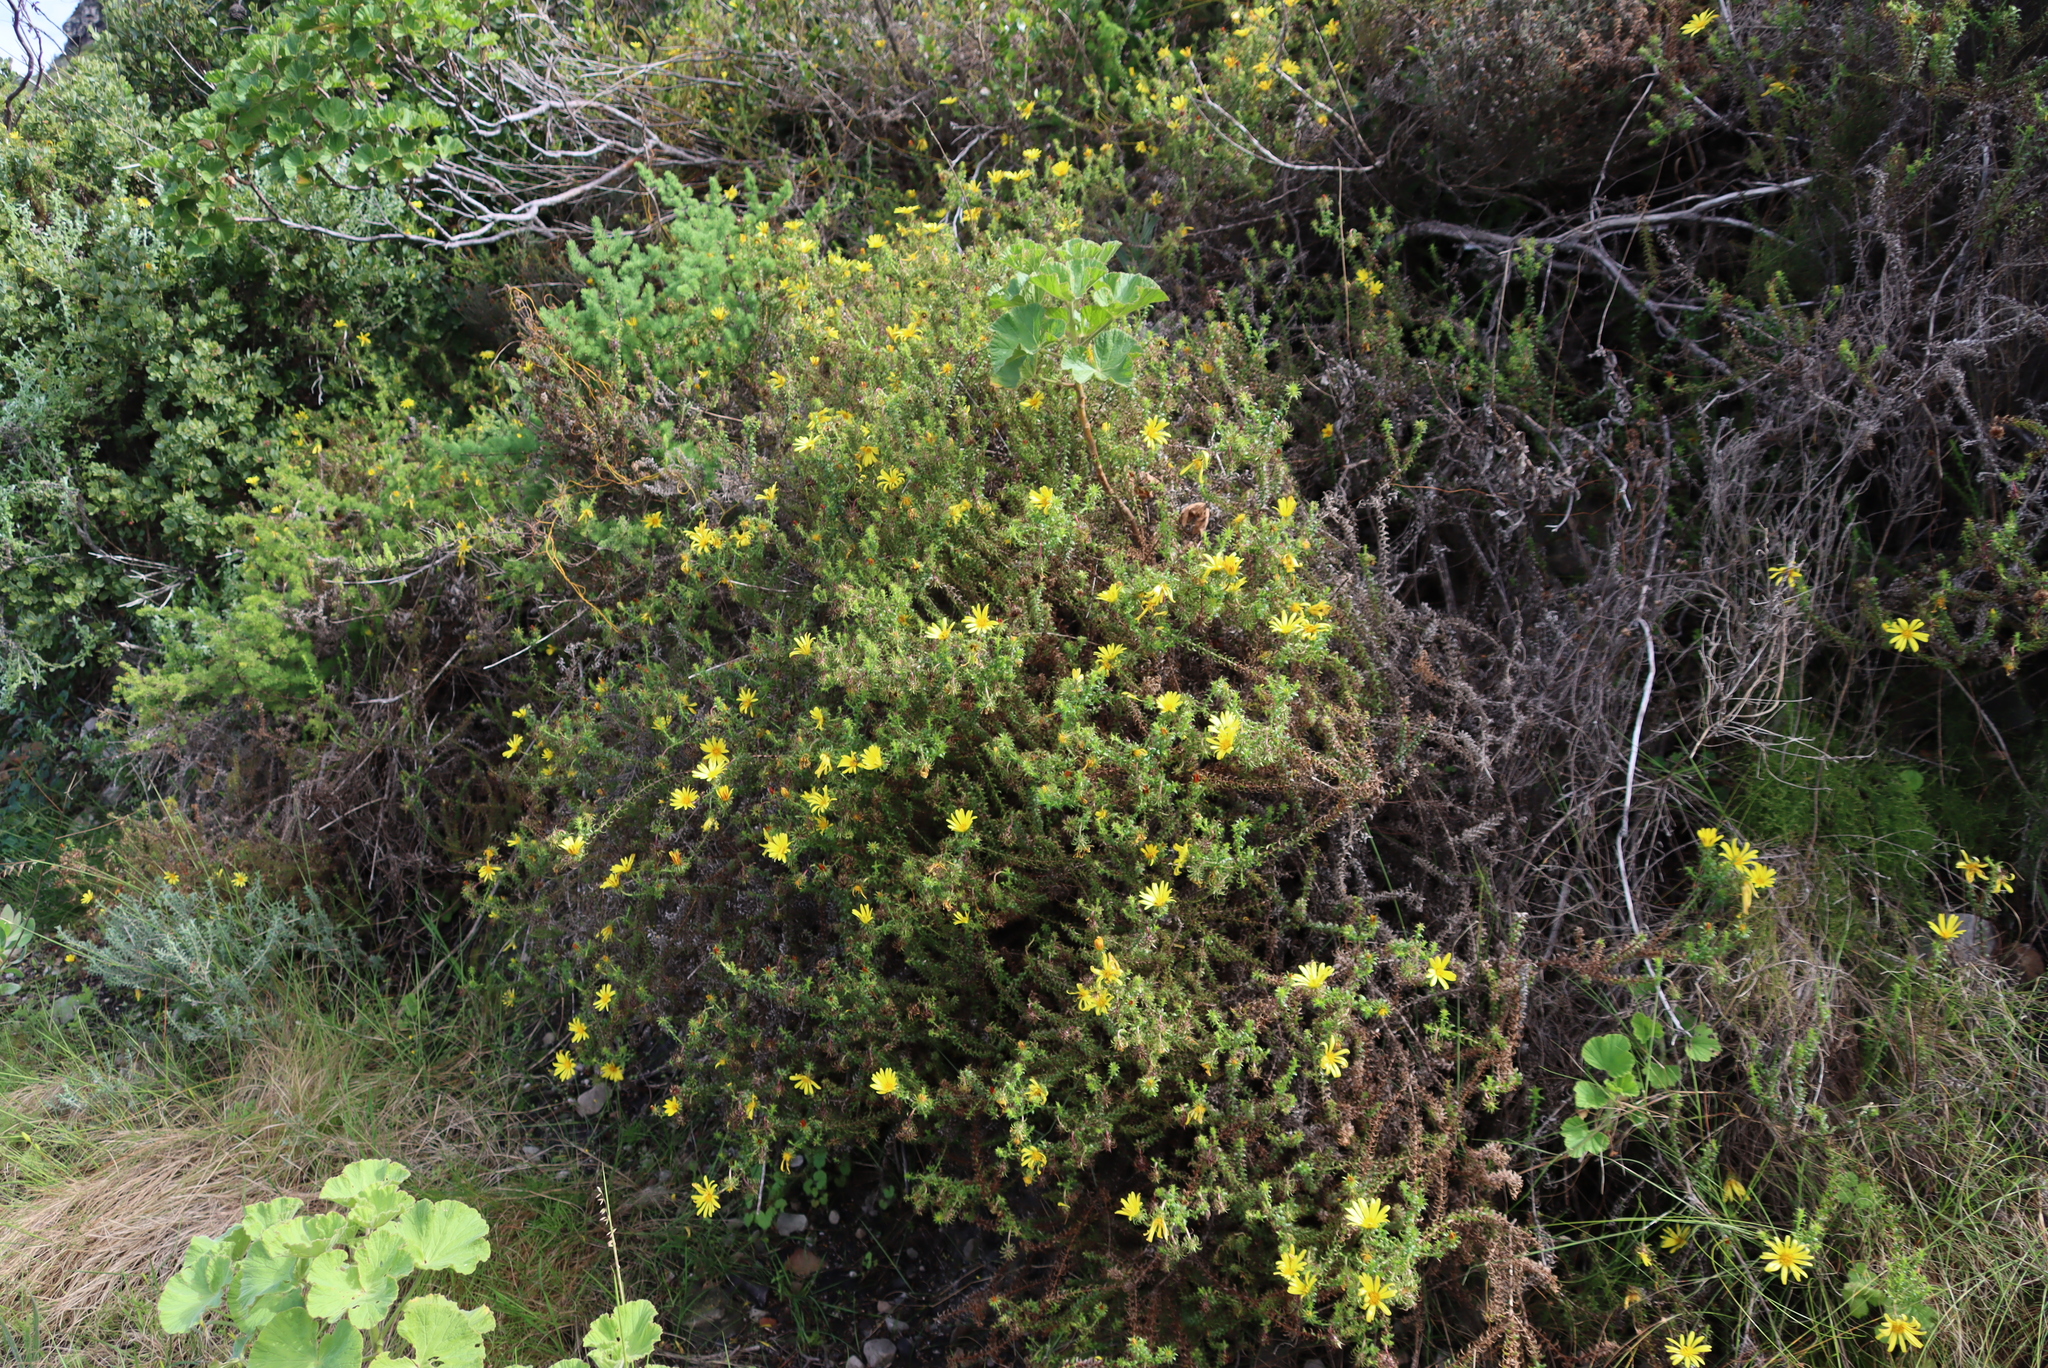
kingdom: Plantae
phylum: Tracheophyta
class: Magnoliopsida
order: Asterales
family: Asteraceae
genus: Cullumia
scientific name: Cullumia setosa
